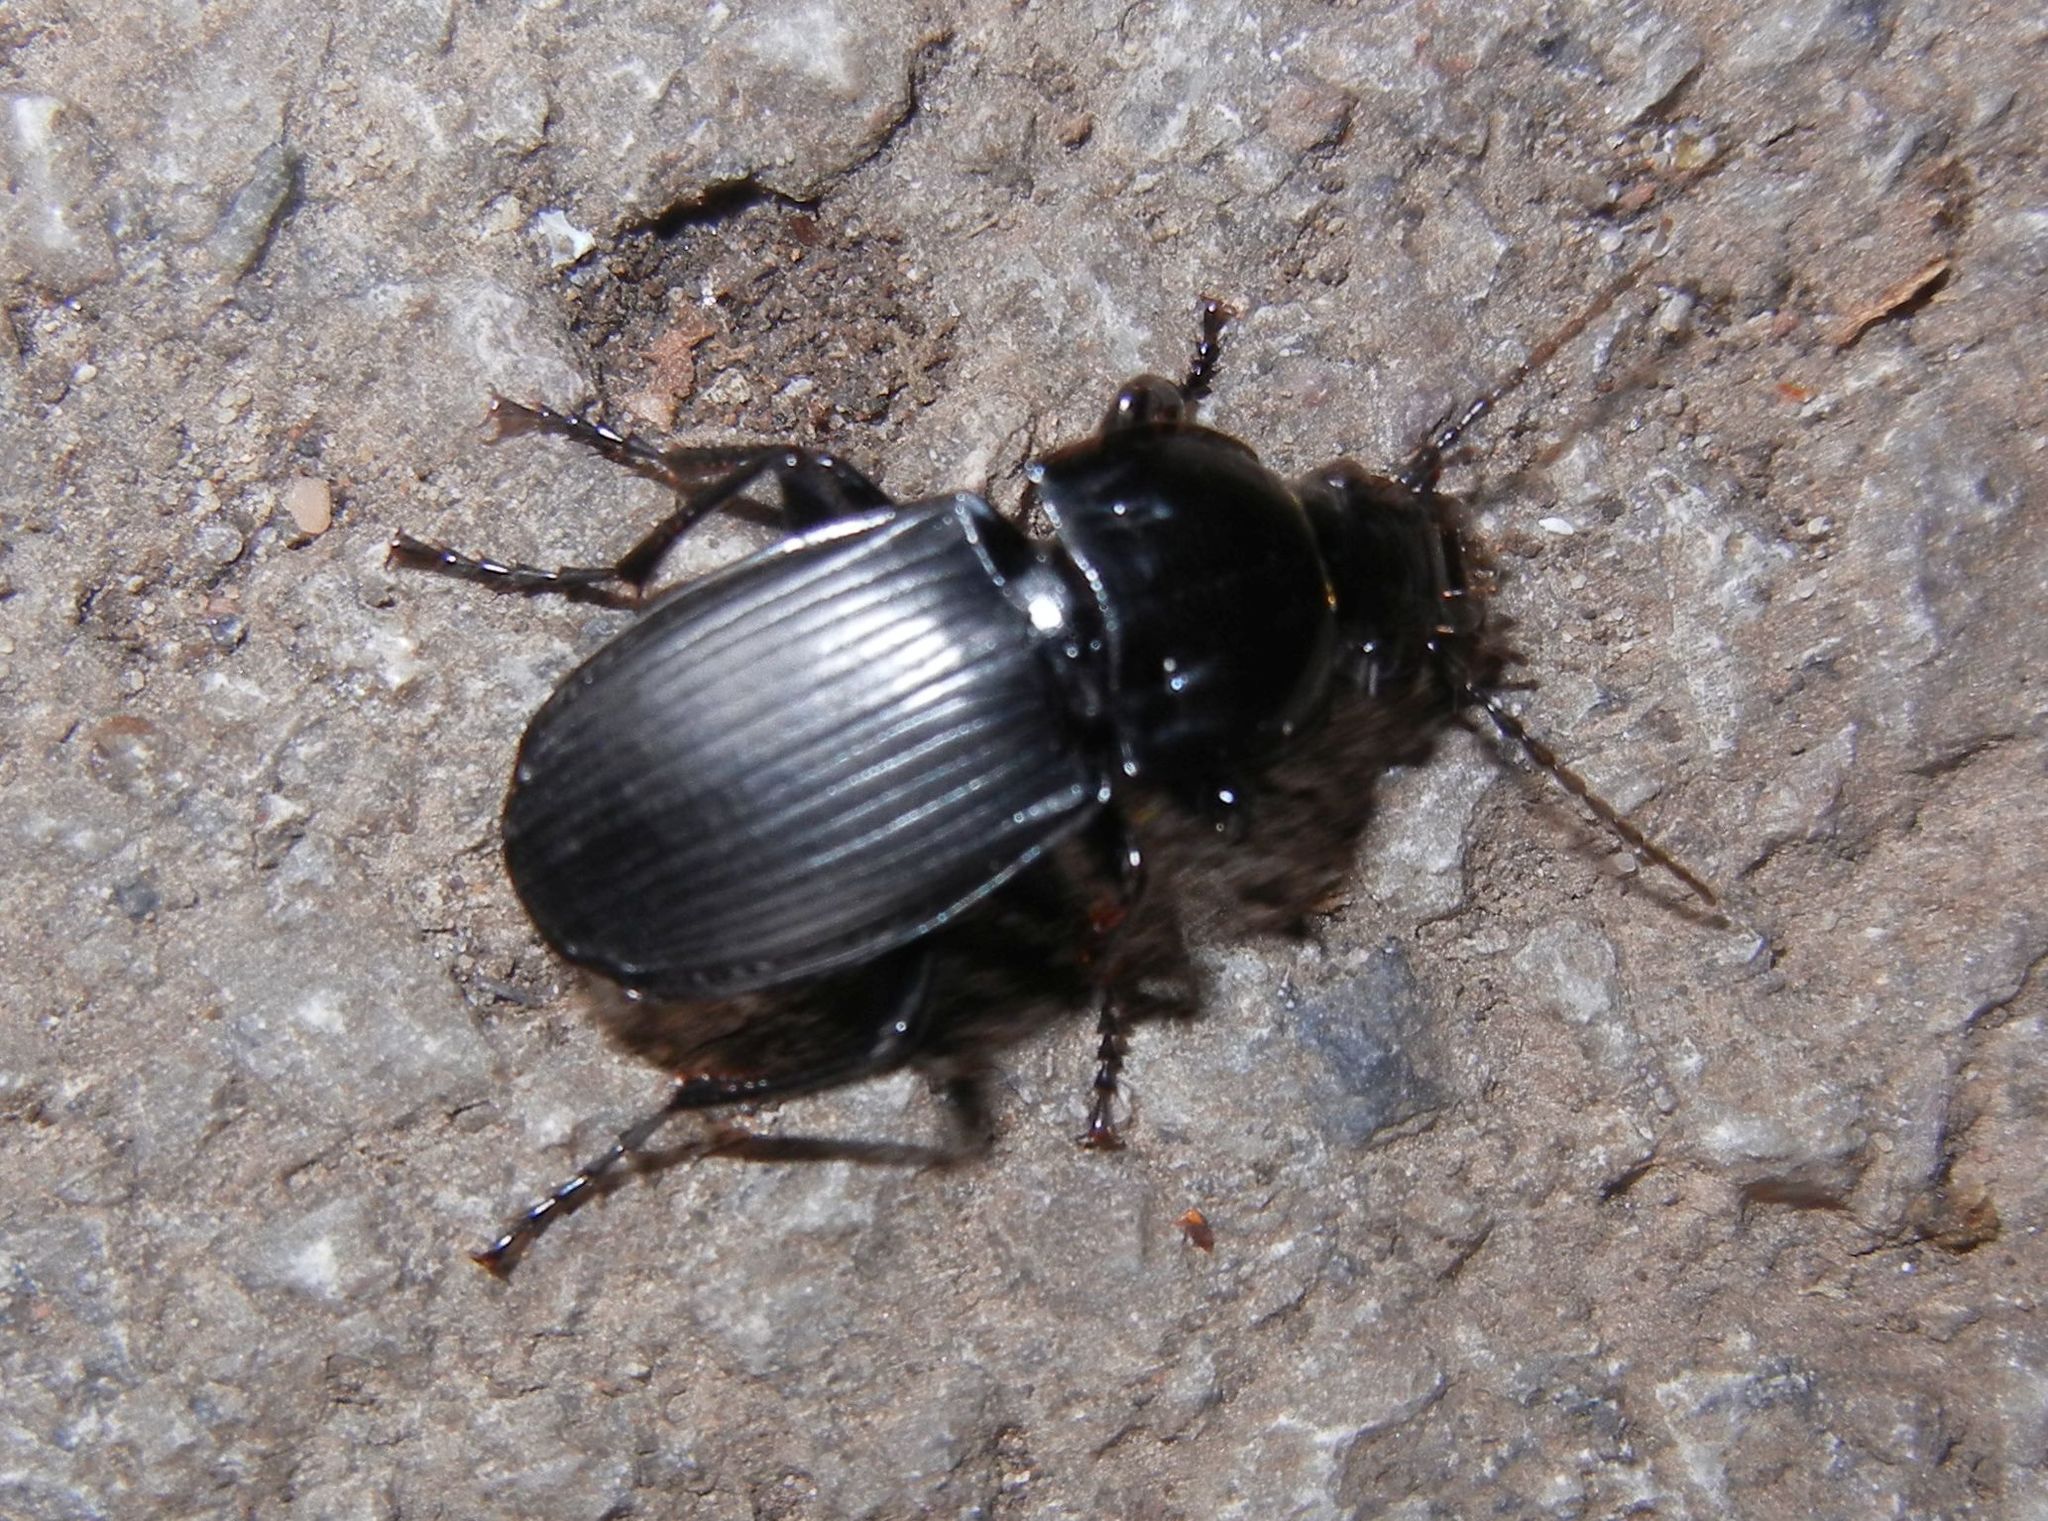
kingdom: Animalia
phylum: Arthropoda
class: Insecta
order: Coleoptera
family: Carabidae
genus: Abax
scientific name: Abax parallelepipedus
